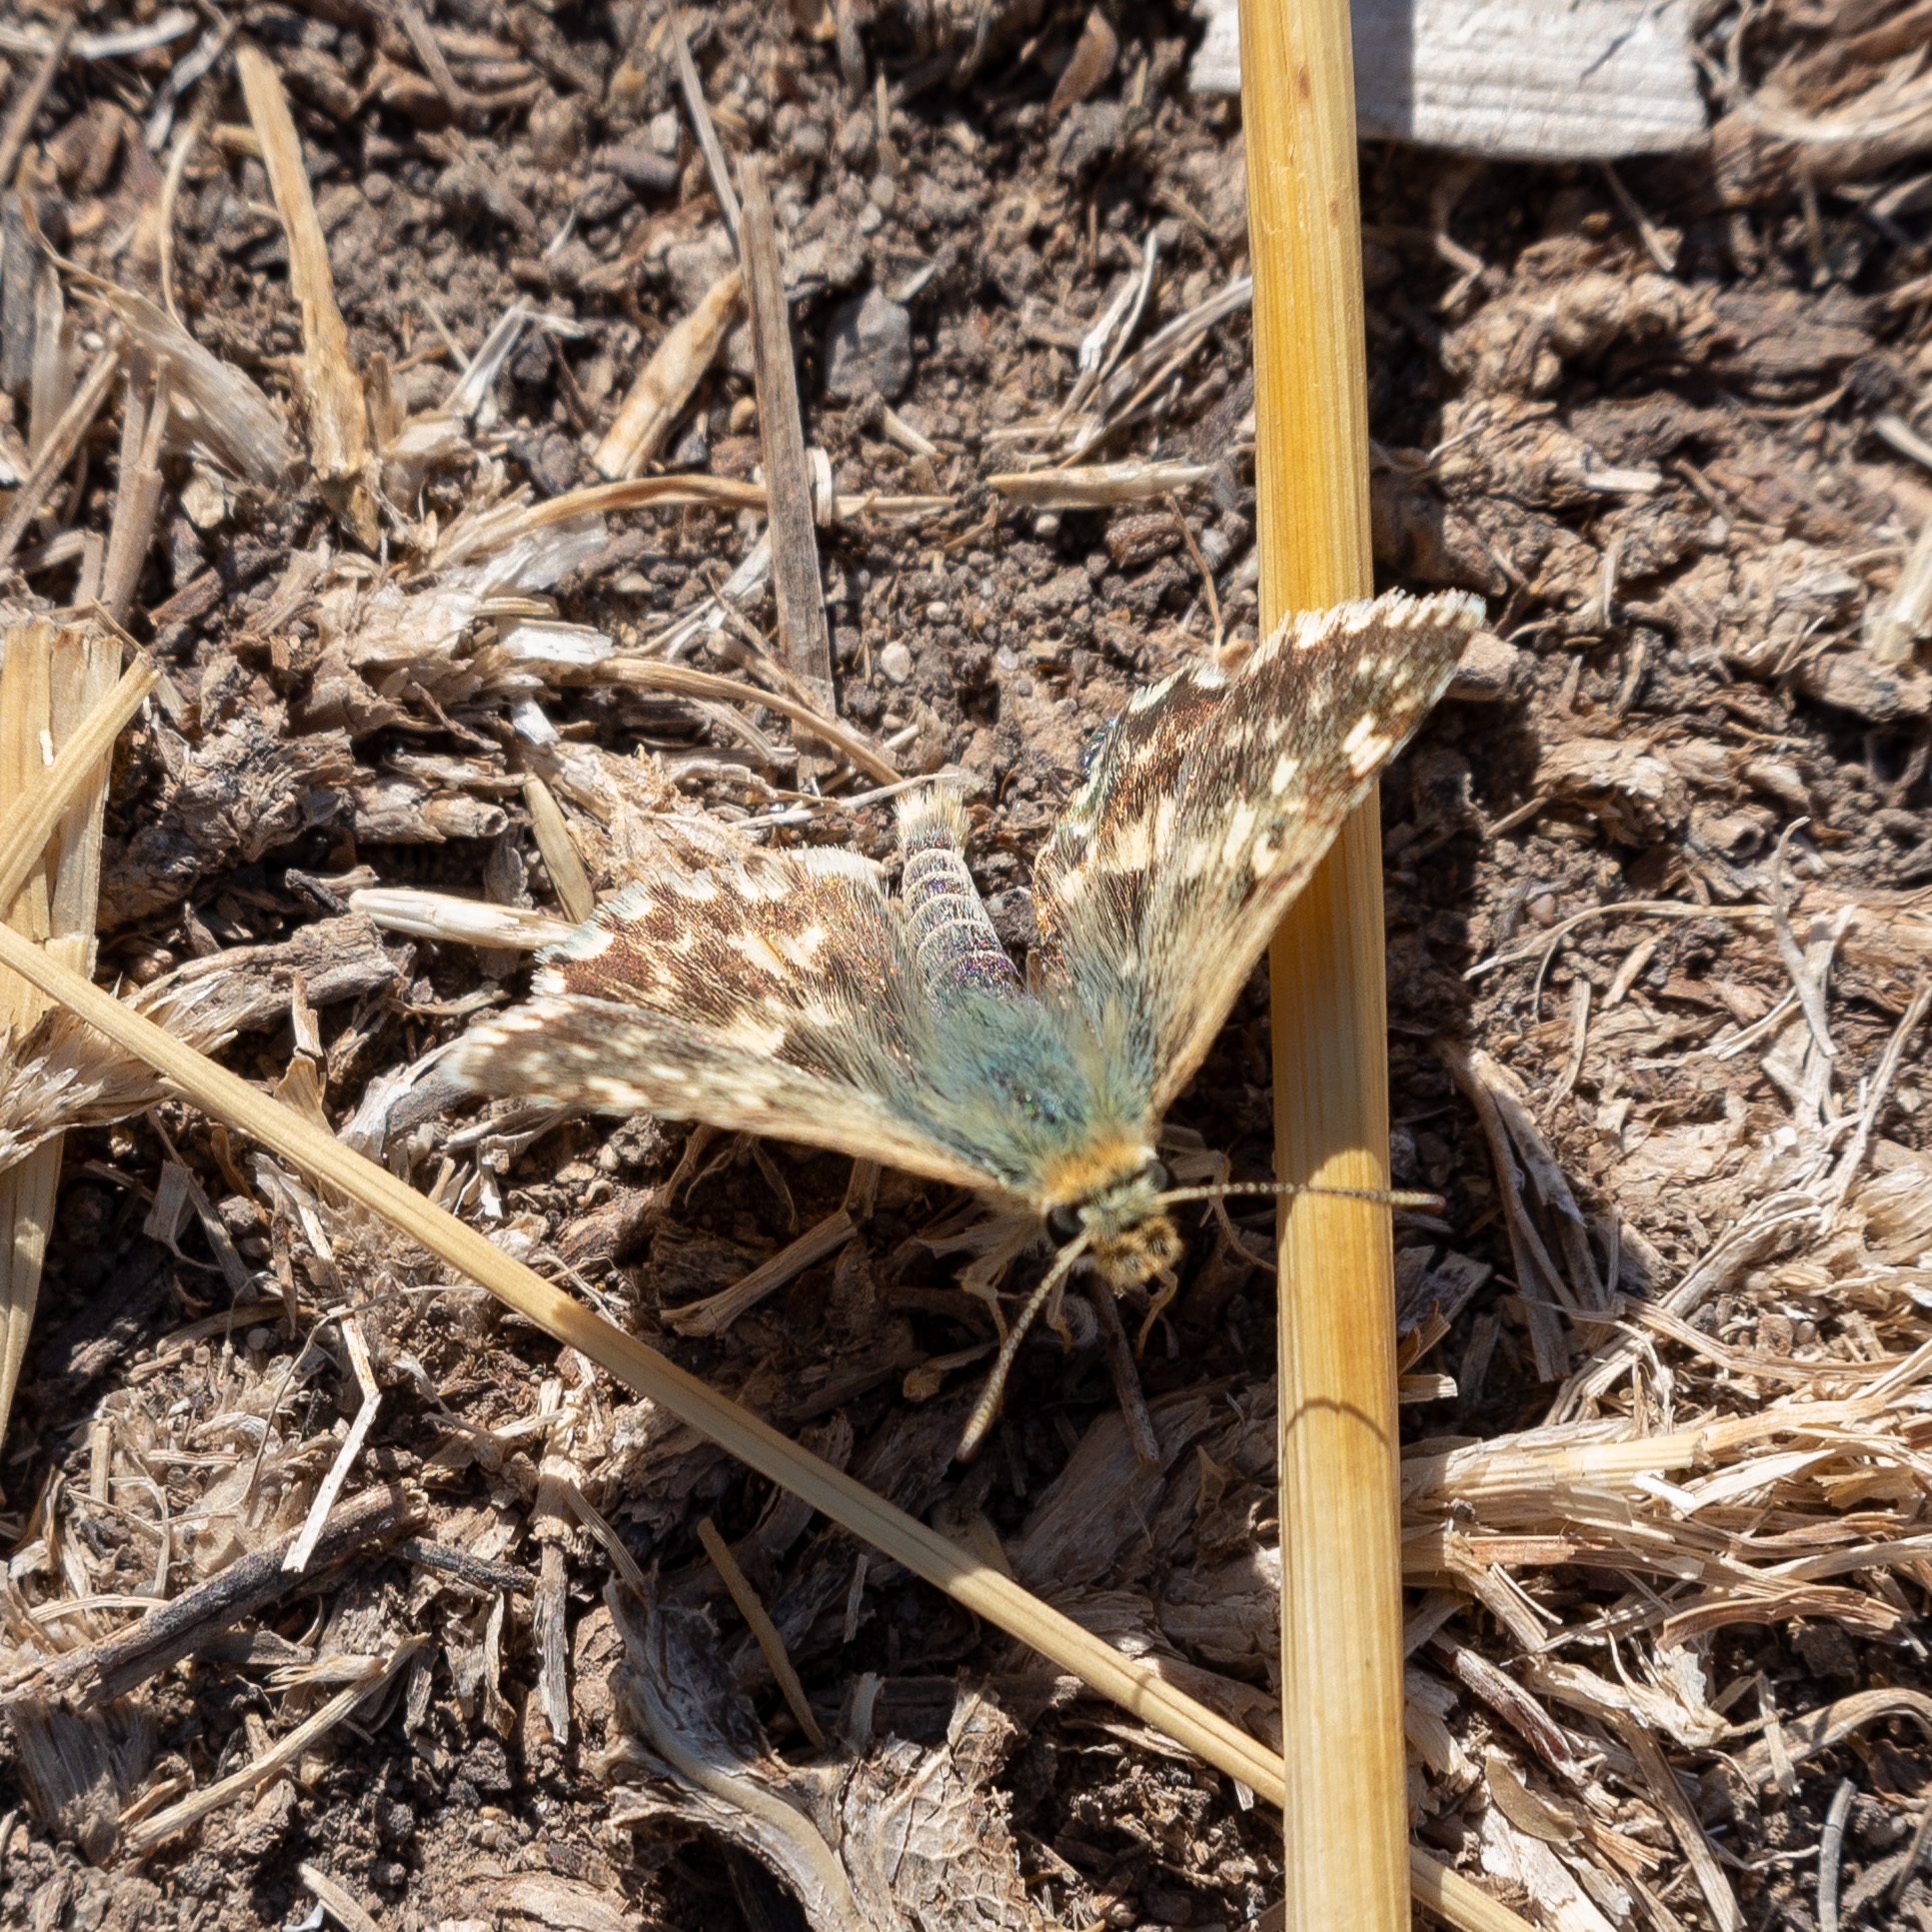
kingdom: Animalia
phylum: Arthropoda
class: Insecta
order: Lepidoptera
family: Hesperiidae
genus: Syrichtus
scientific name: Syrichtus Muschampia proto
